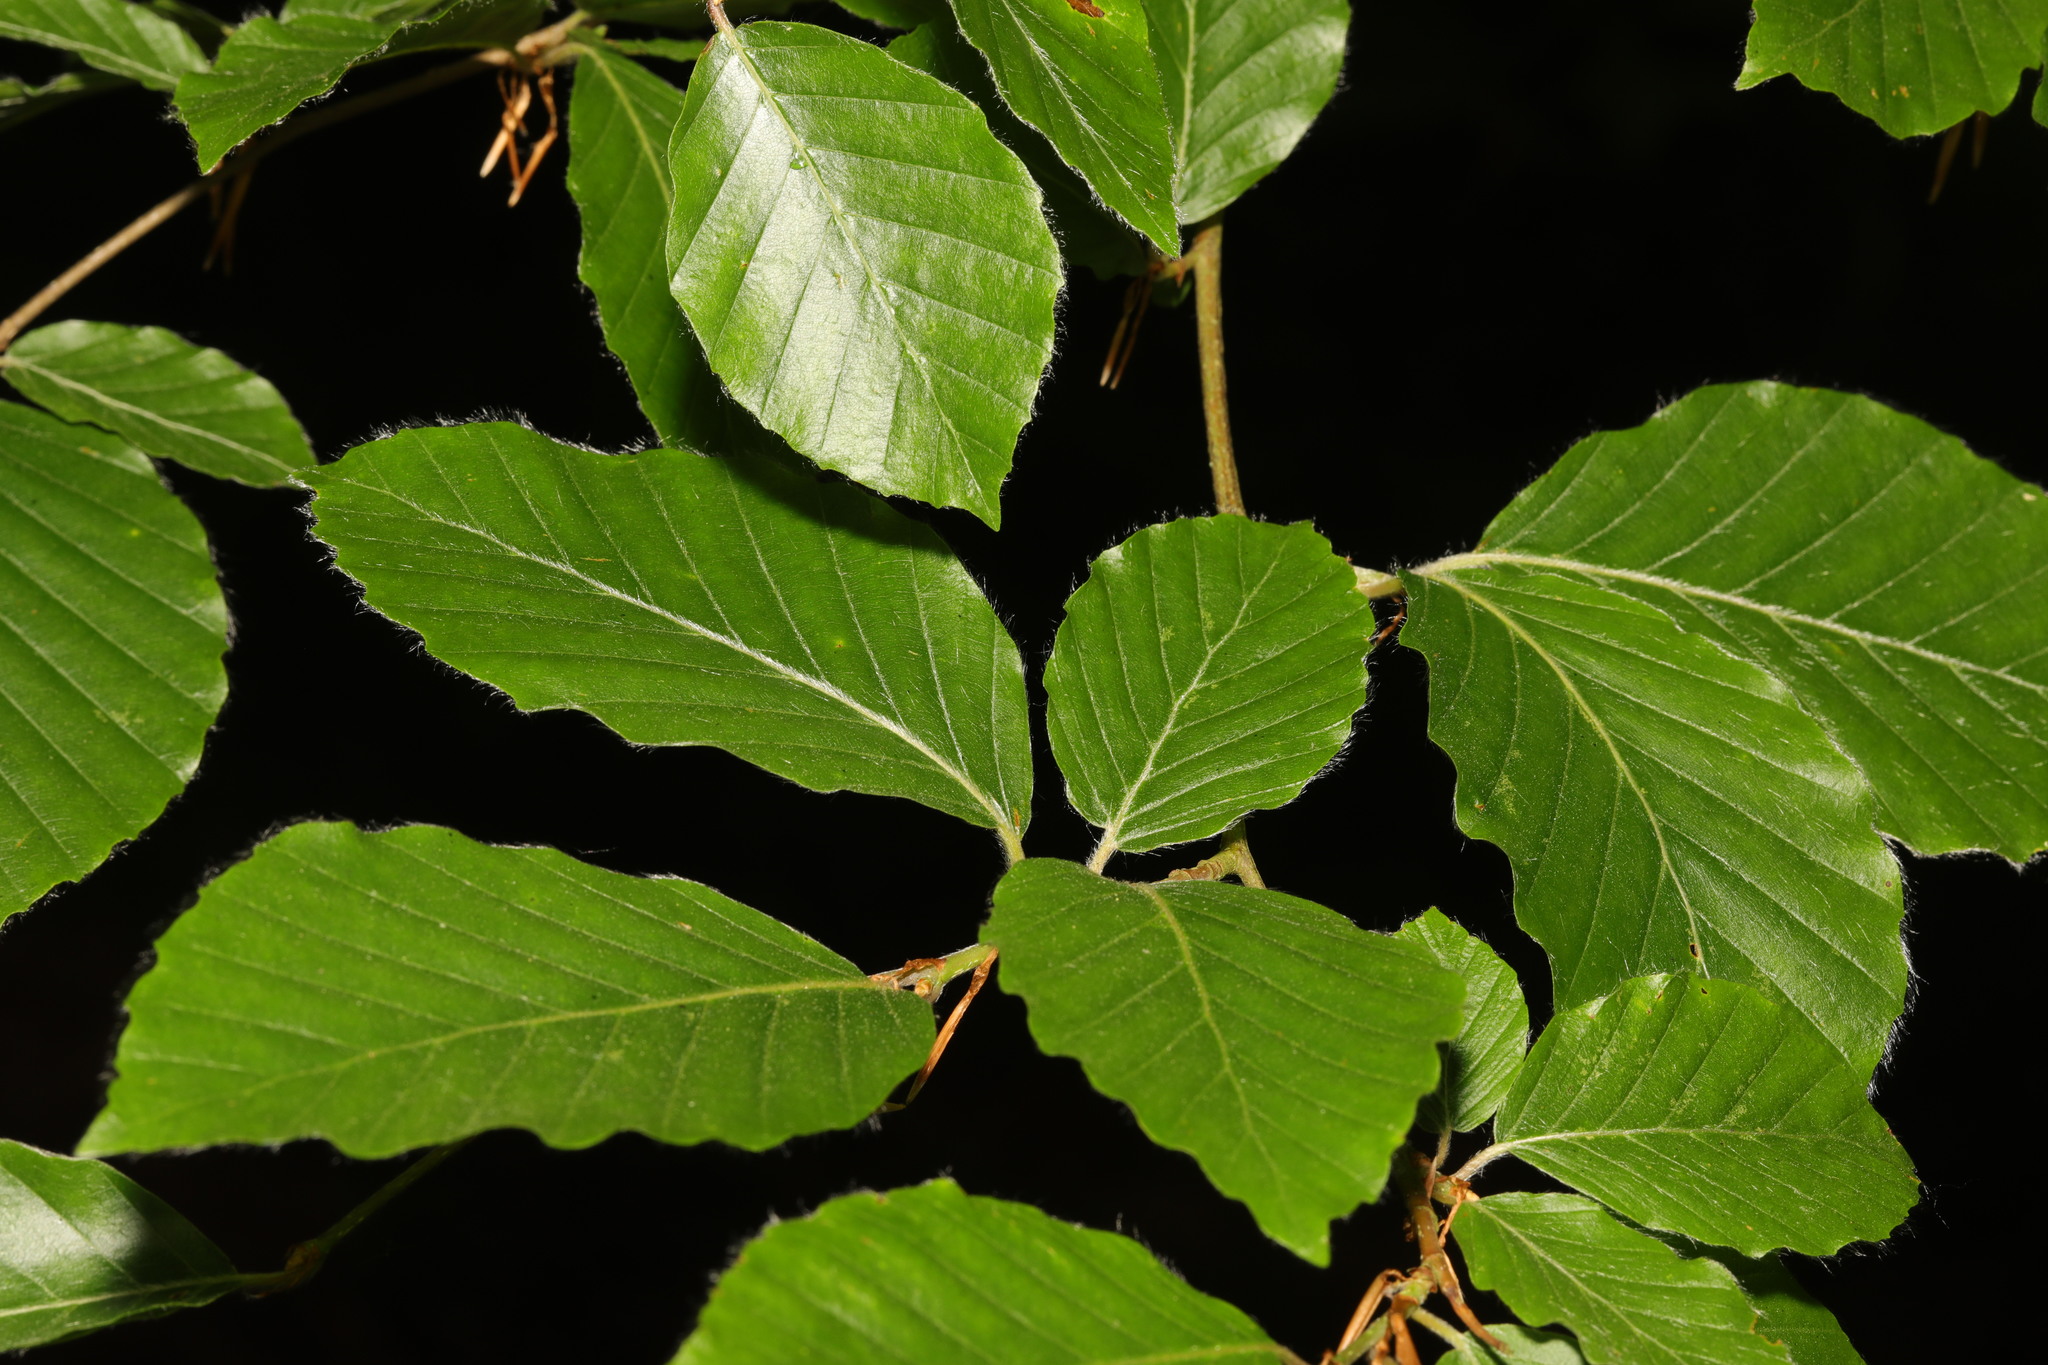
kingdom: Plantae
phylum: Tracheophyta
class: Magnoliopsida
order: Fagales
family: Fagaceae
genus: Fagus
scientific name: Fagus sylvatica
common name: Beech
